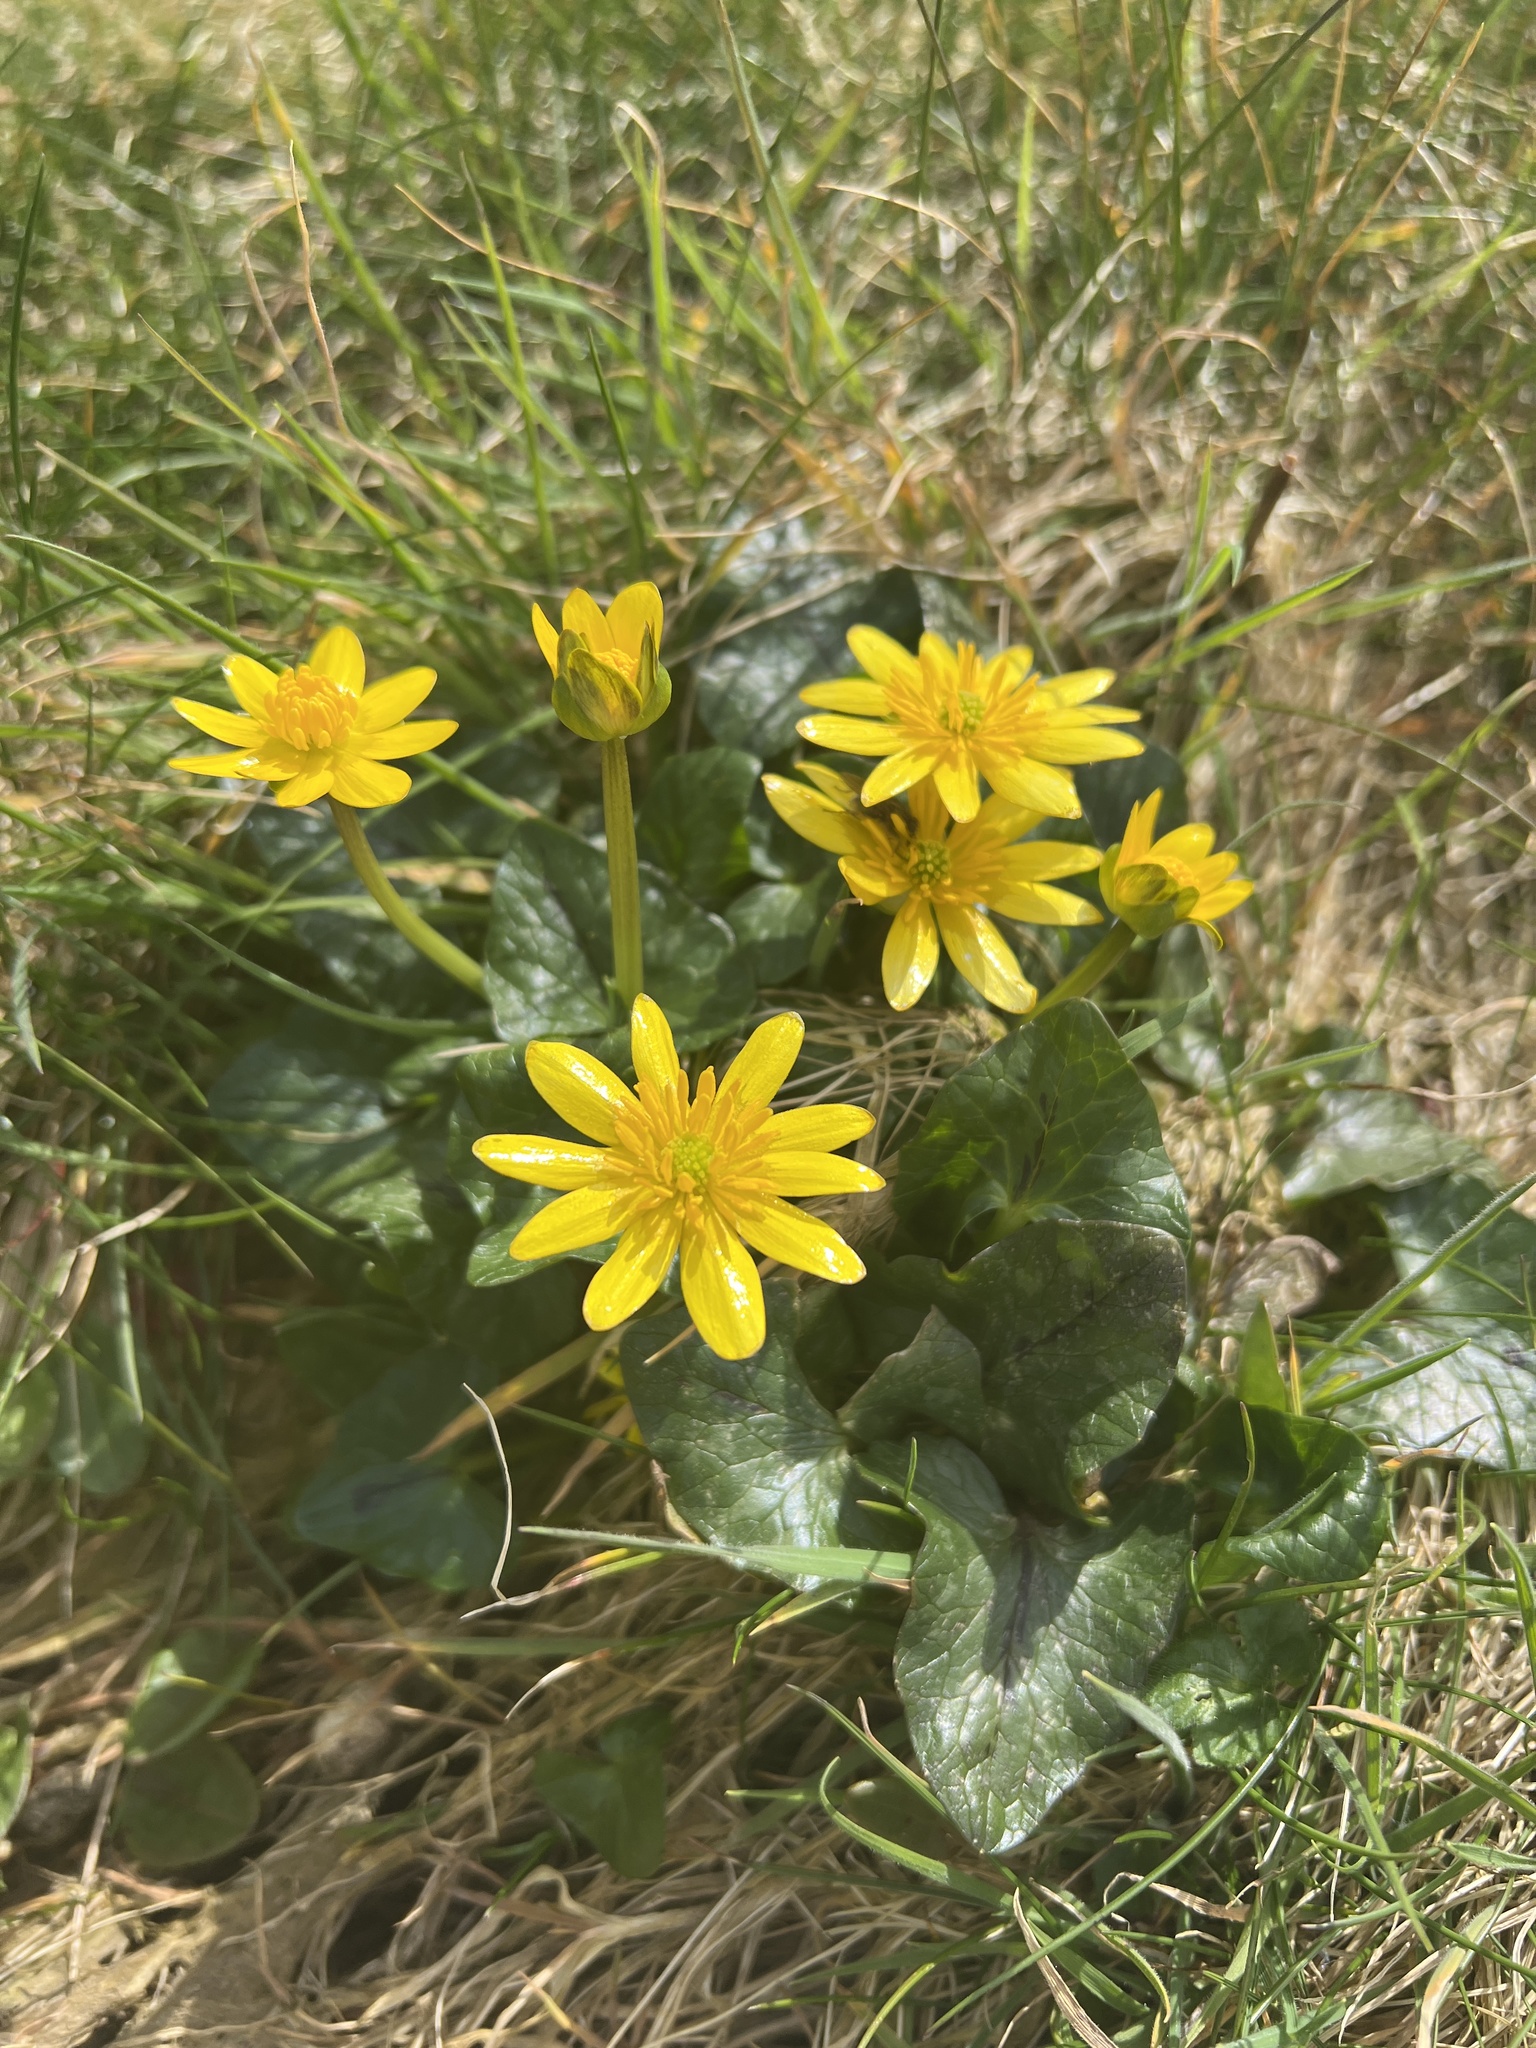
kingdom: Plantae
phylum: Tracheophyta
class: Magnoliopsida
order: Ranunculales
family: Ranunculaceae
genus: Ficaria
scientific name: Ficaria verna
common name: Lesser celandine
